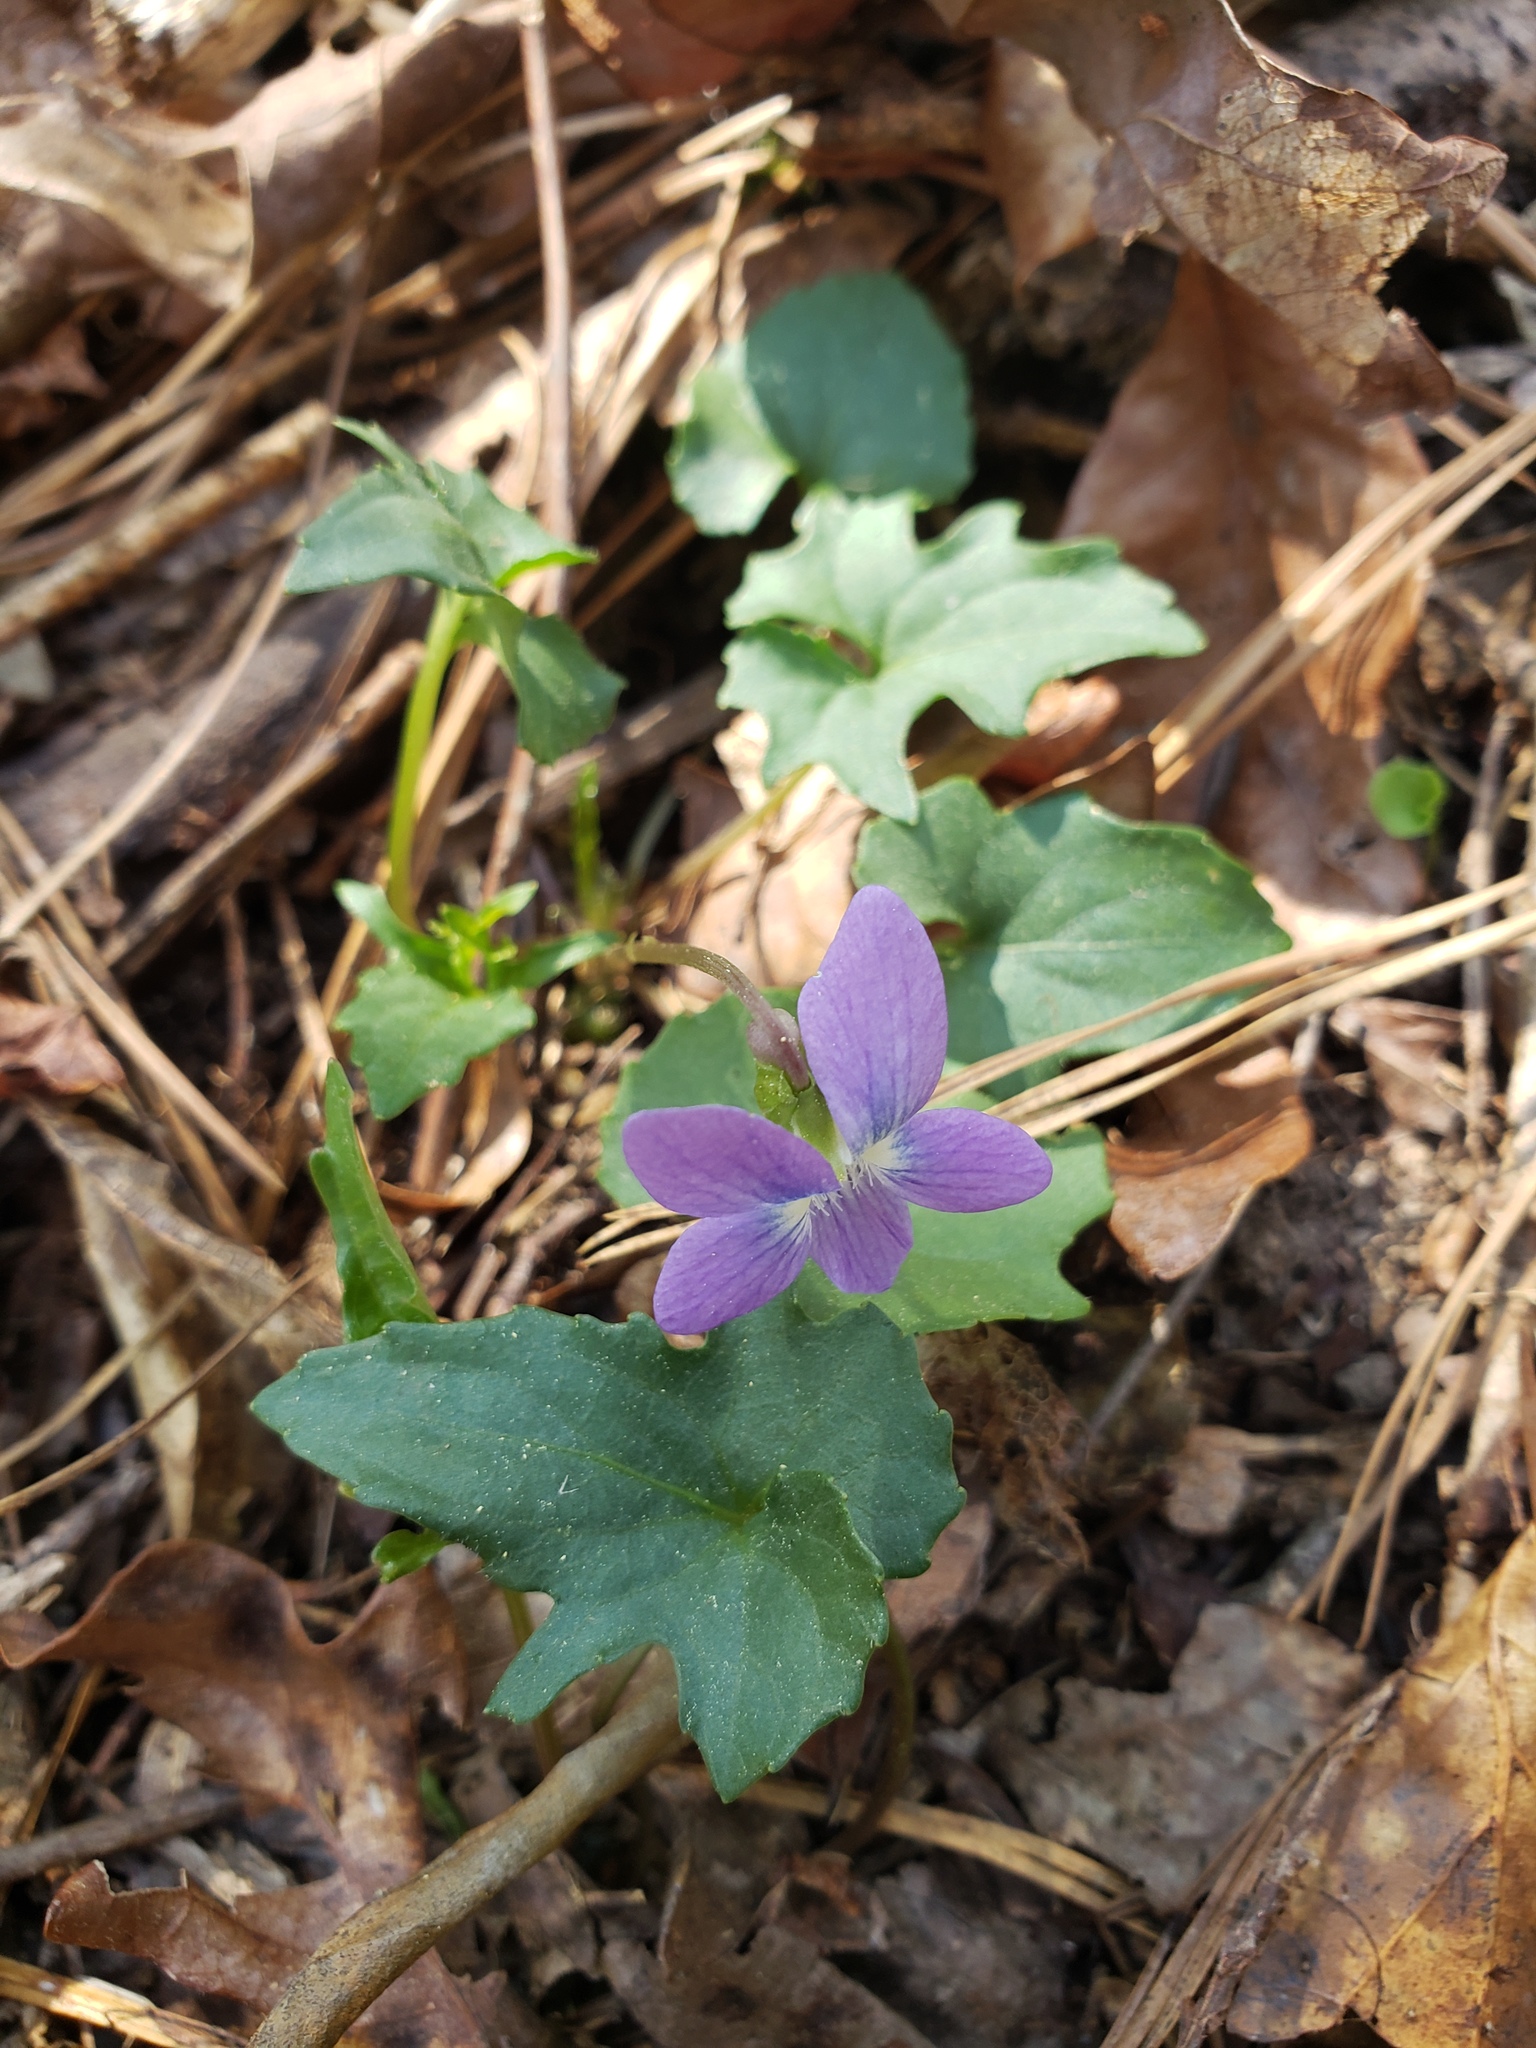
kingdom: Plantae
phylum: Tracheophyta
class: Magnoliopsida
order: Malpighiales
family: Violaceae
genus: Viola
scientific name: Viola palmata
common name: Early blue violet
